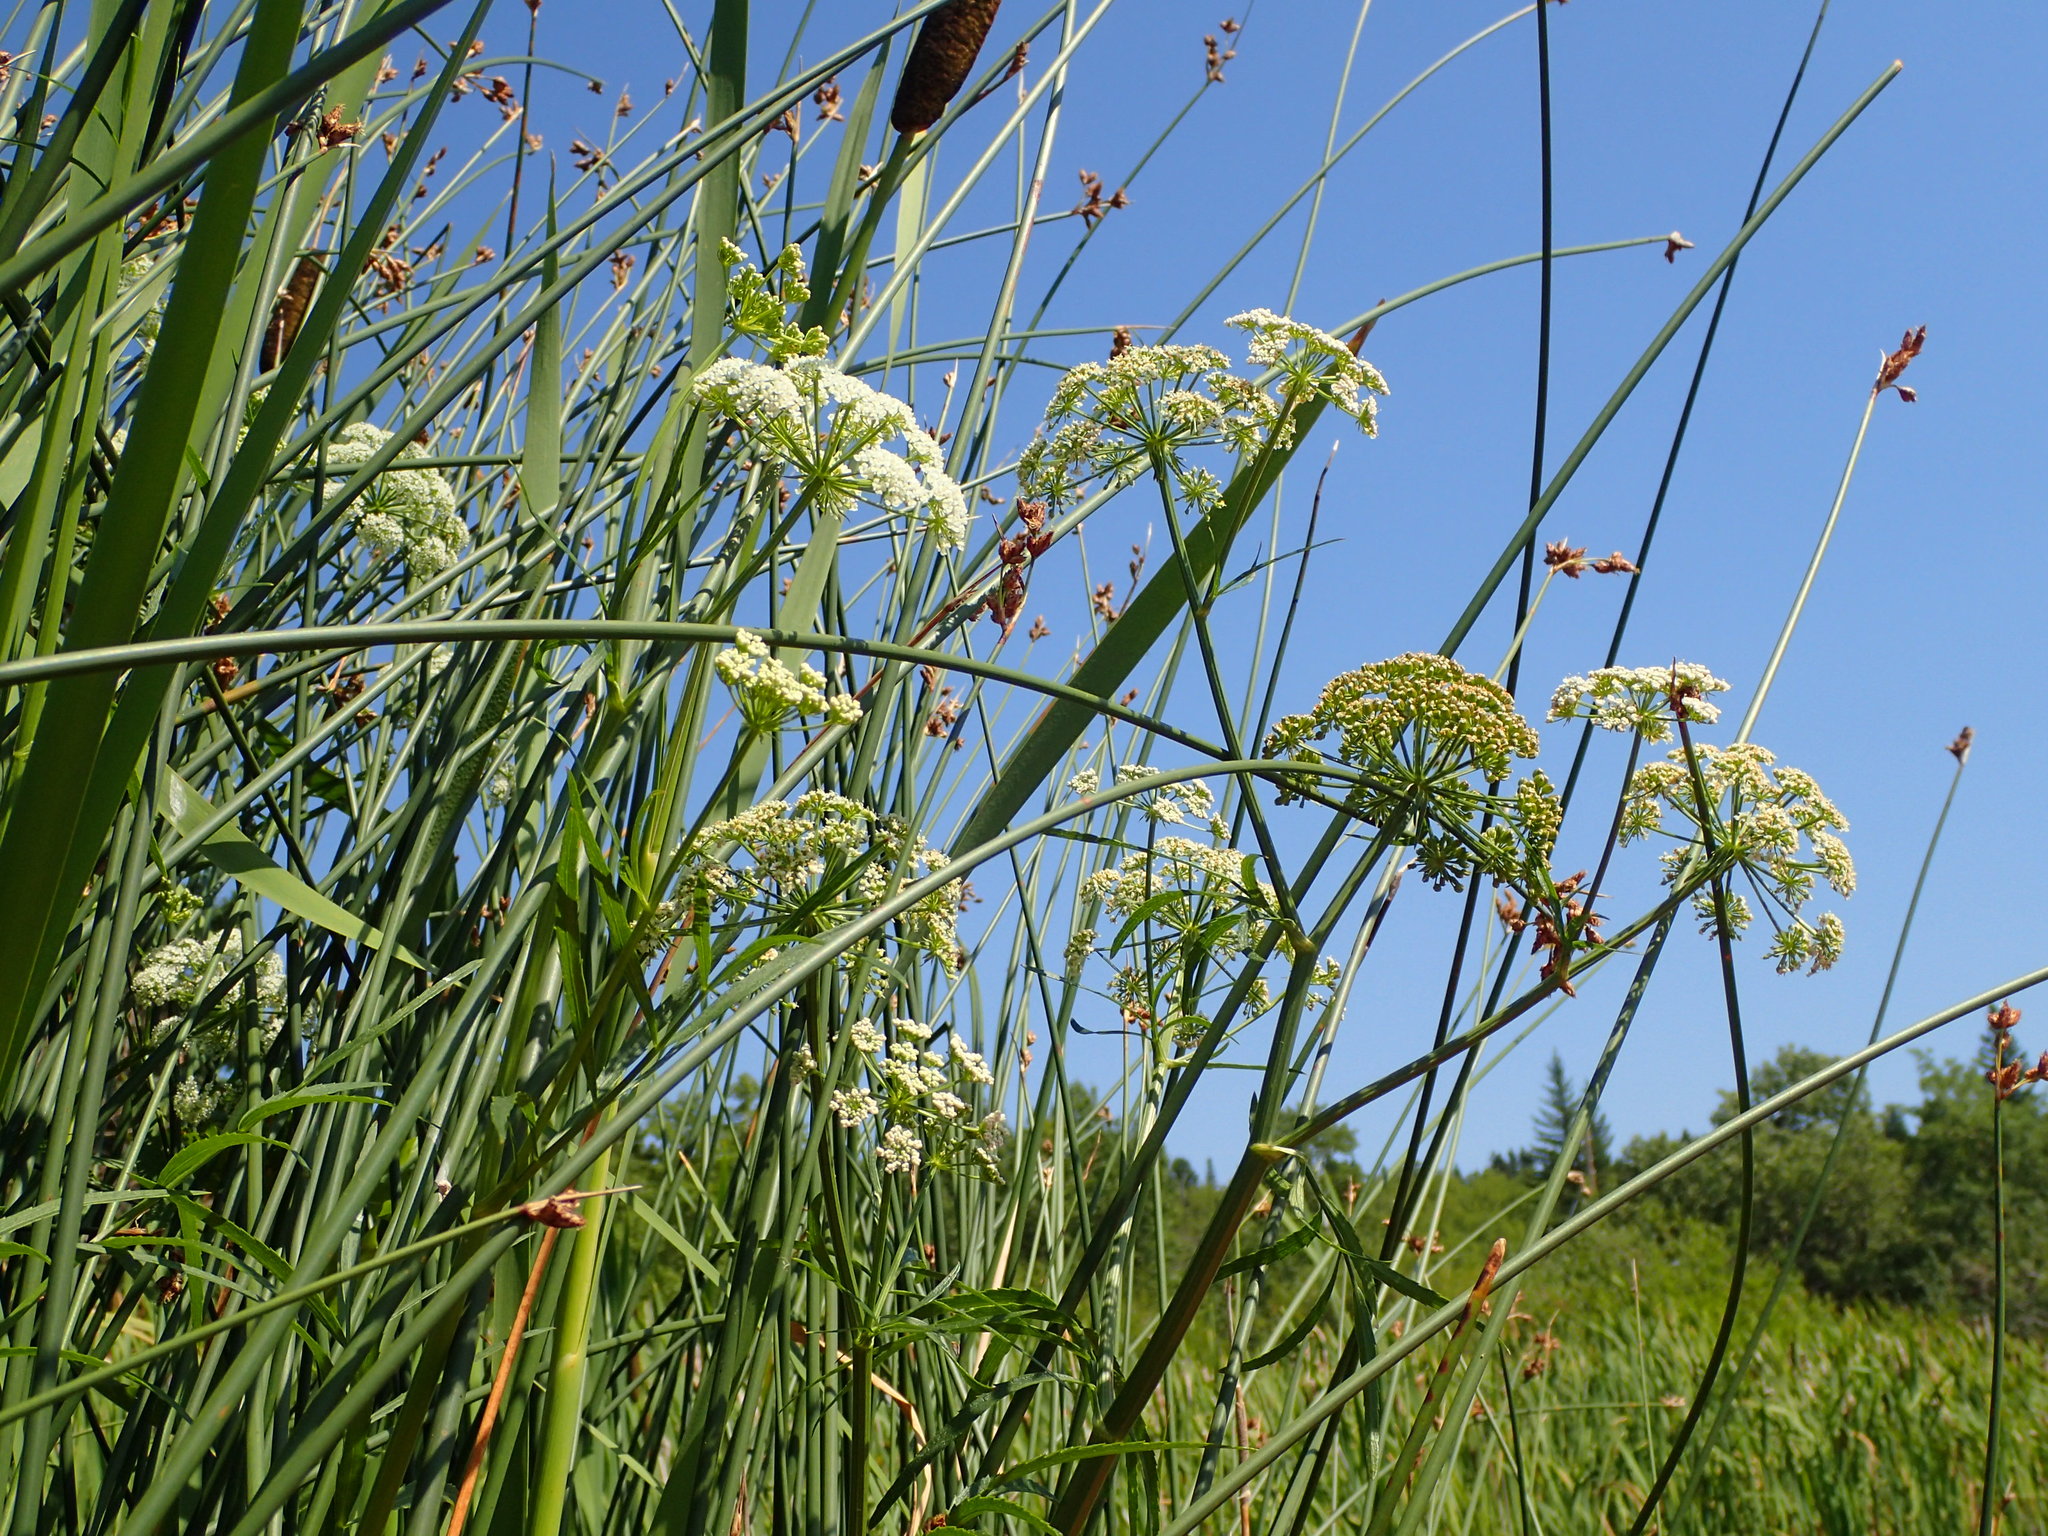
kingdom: Plantae
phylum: Tracheophyta
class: Magnoliopsida
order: Apiales
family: Apiaceae
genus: Cicuta
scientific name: Cicuta maculata
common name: Spotted cowbane
